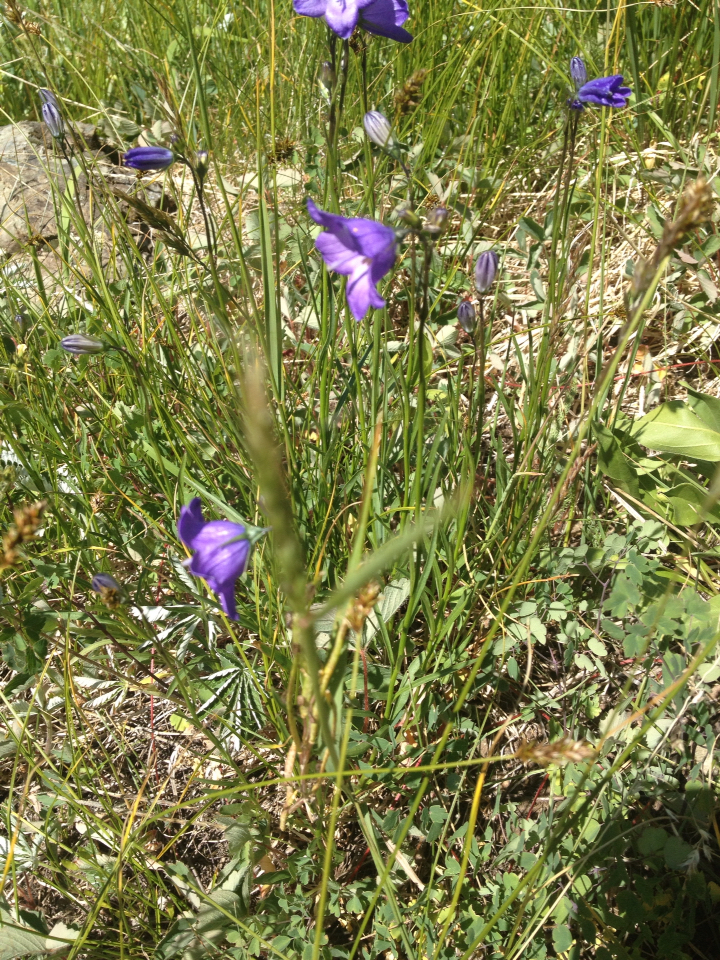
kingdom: Plantae
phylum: Tracheophyta
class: Magnoliopsida
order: Asterales
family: Campanulaceae
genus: Campanula
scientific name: Campanula petiolata
